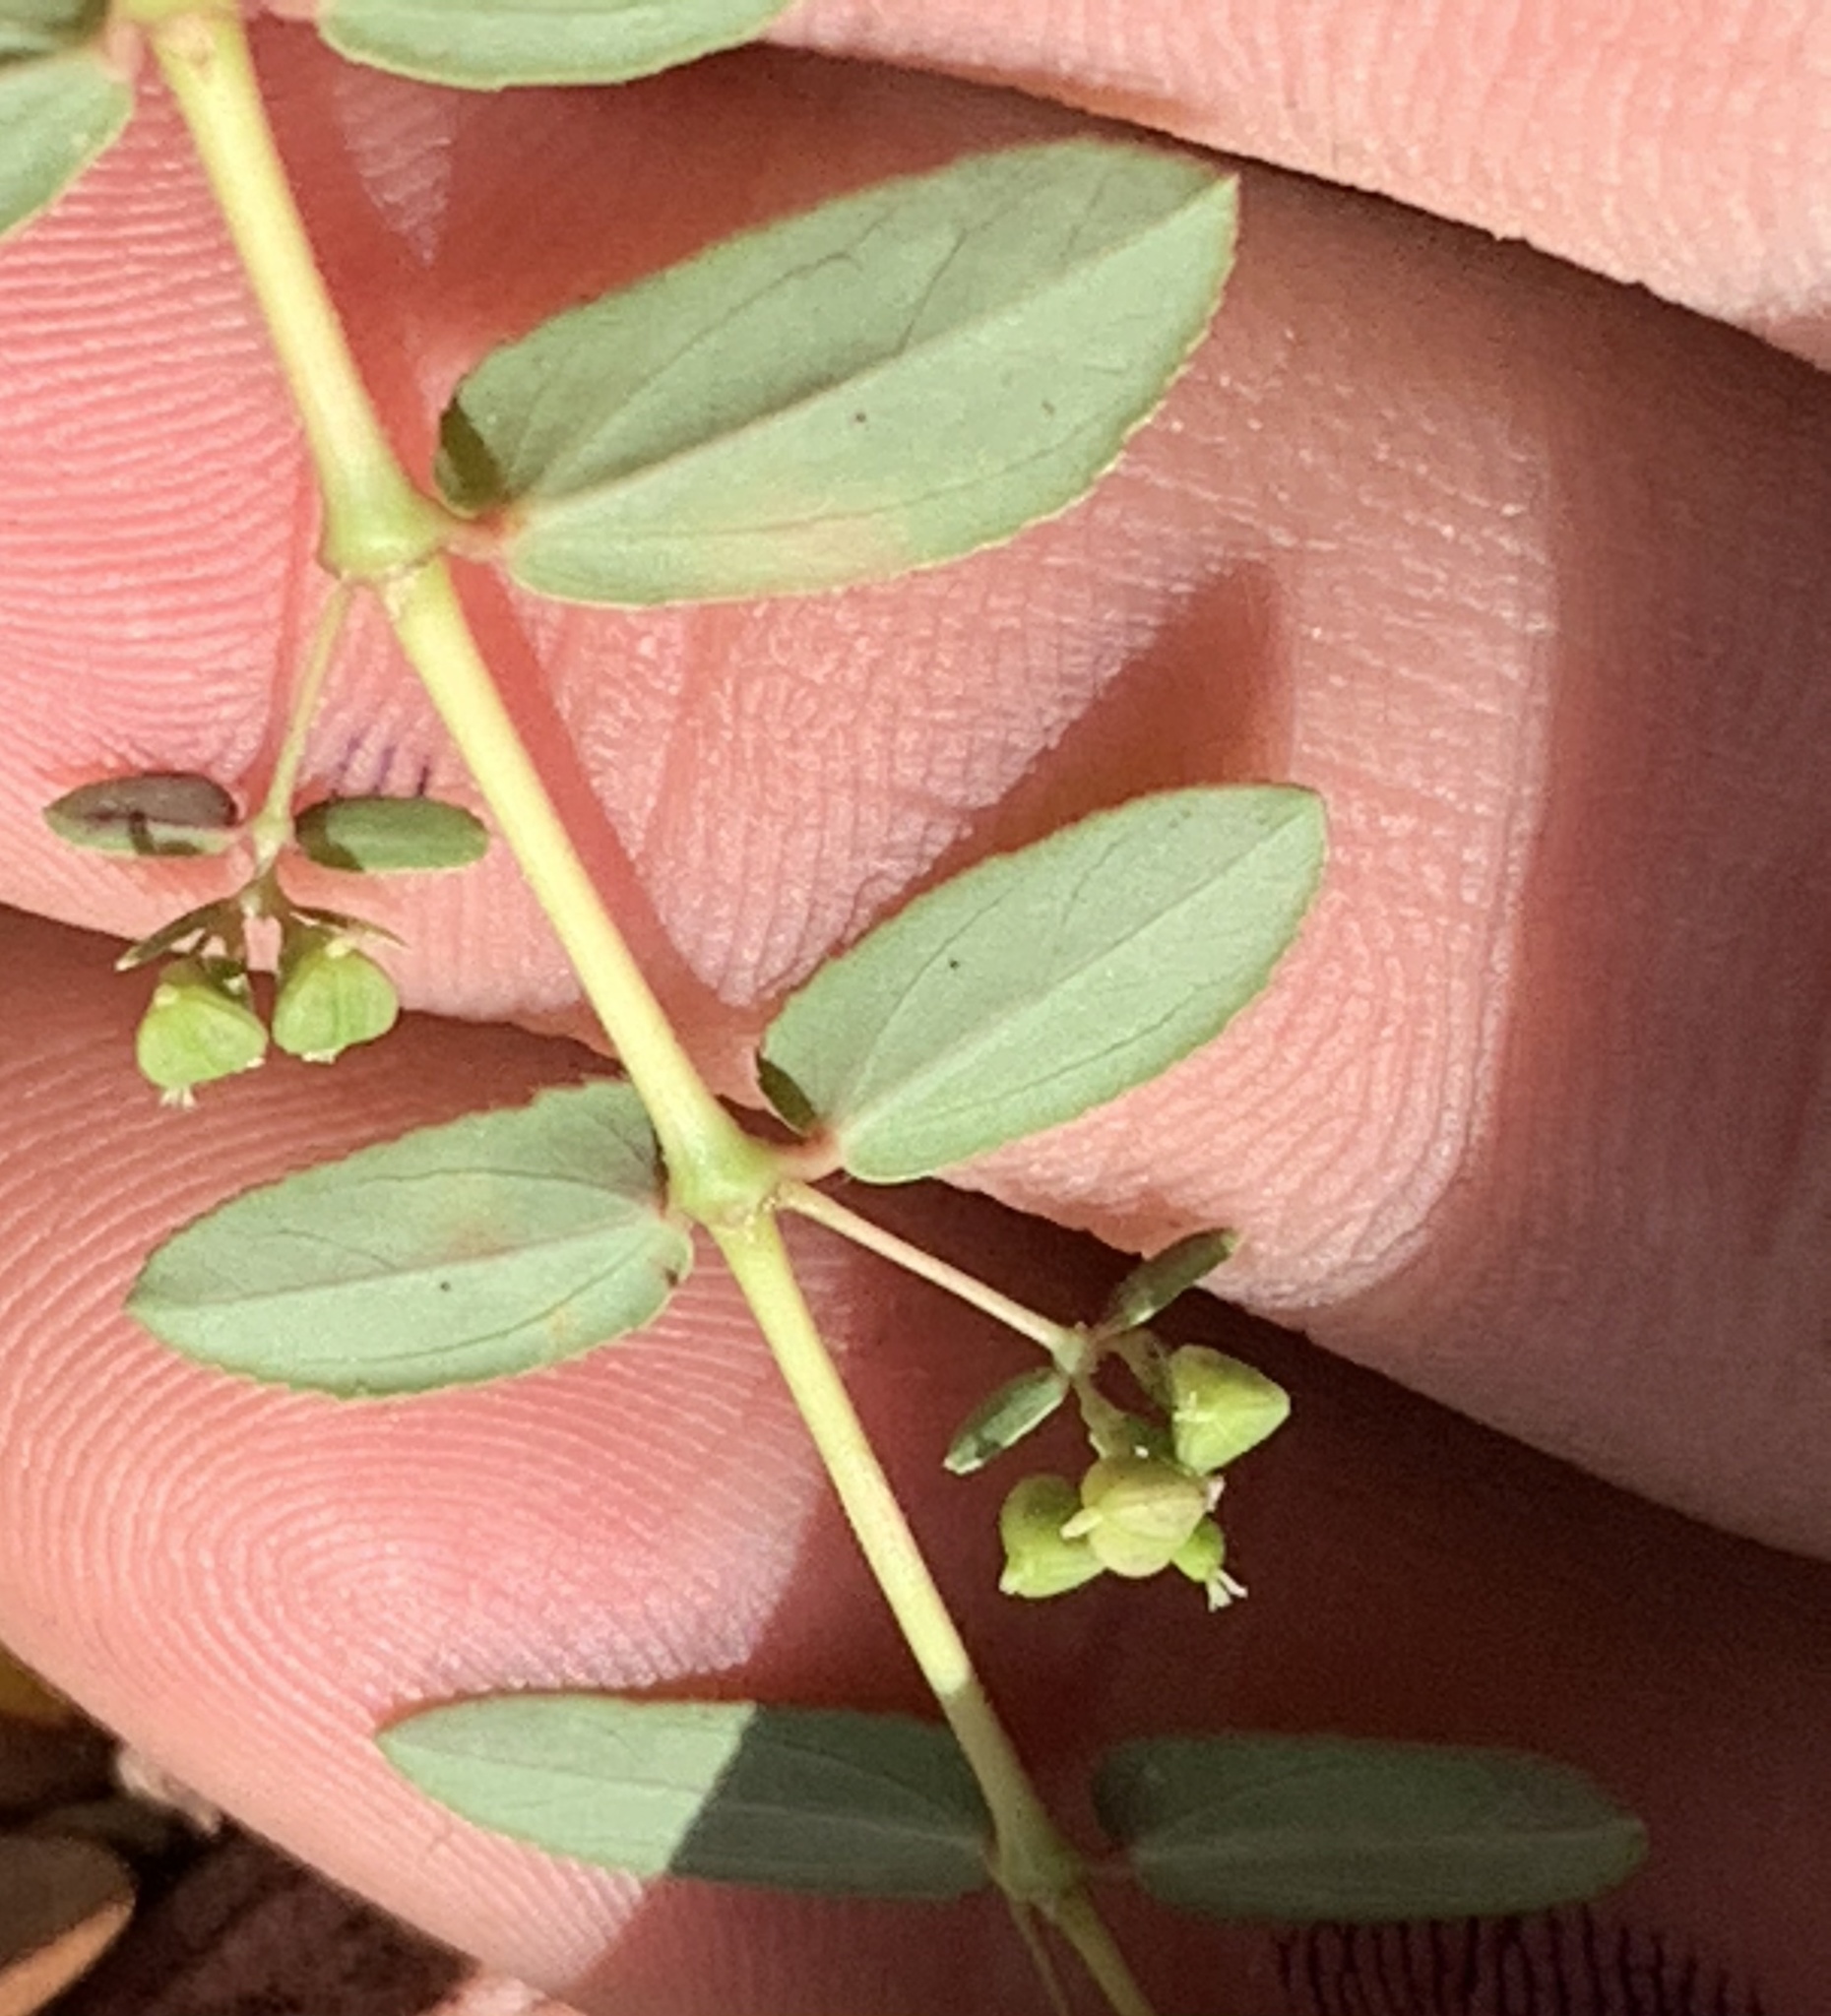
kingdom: Plantae
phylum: Tracheophyta
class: Magnoliopsida
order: Malpighiales
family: Euphorbiaceae
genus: Euphorbia
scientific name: Euphorbia hyssopifolia
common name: Hyssopleaf sandmat
